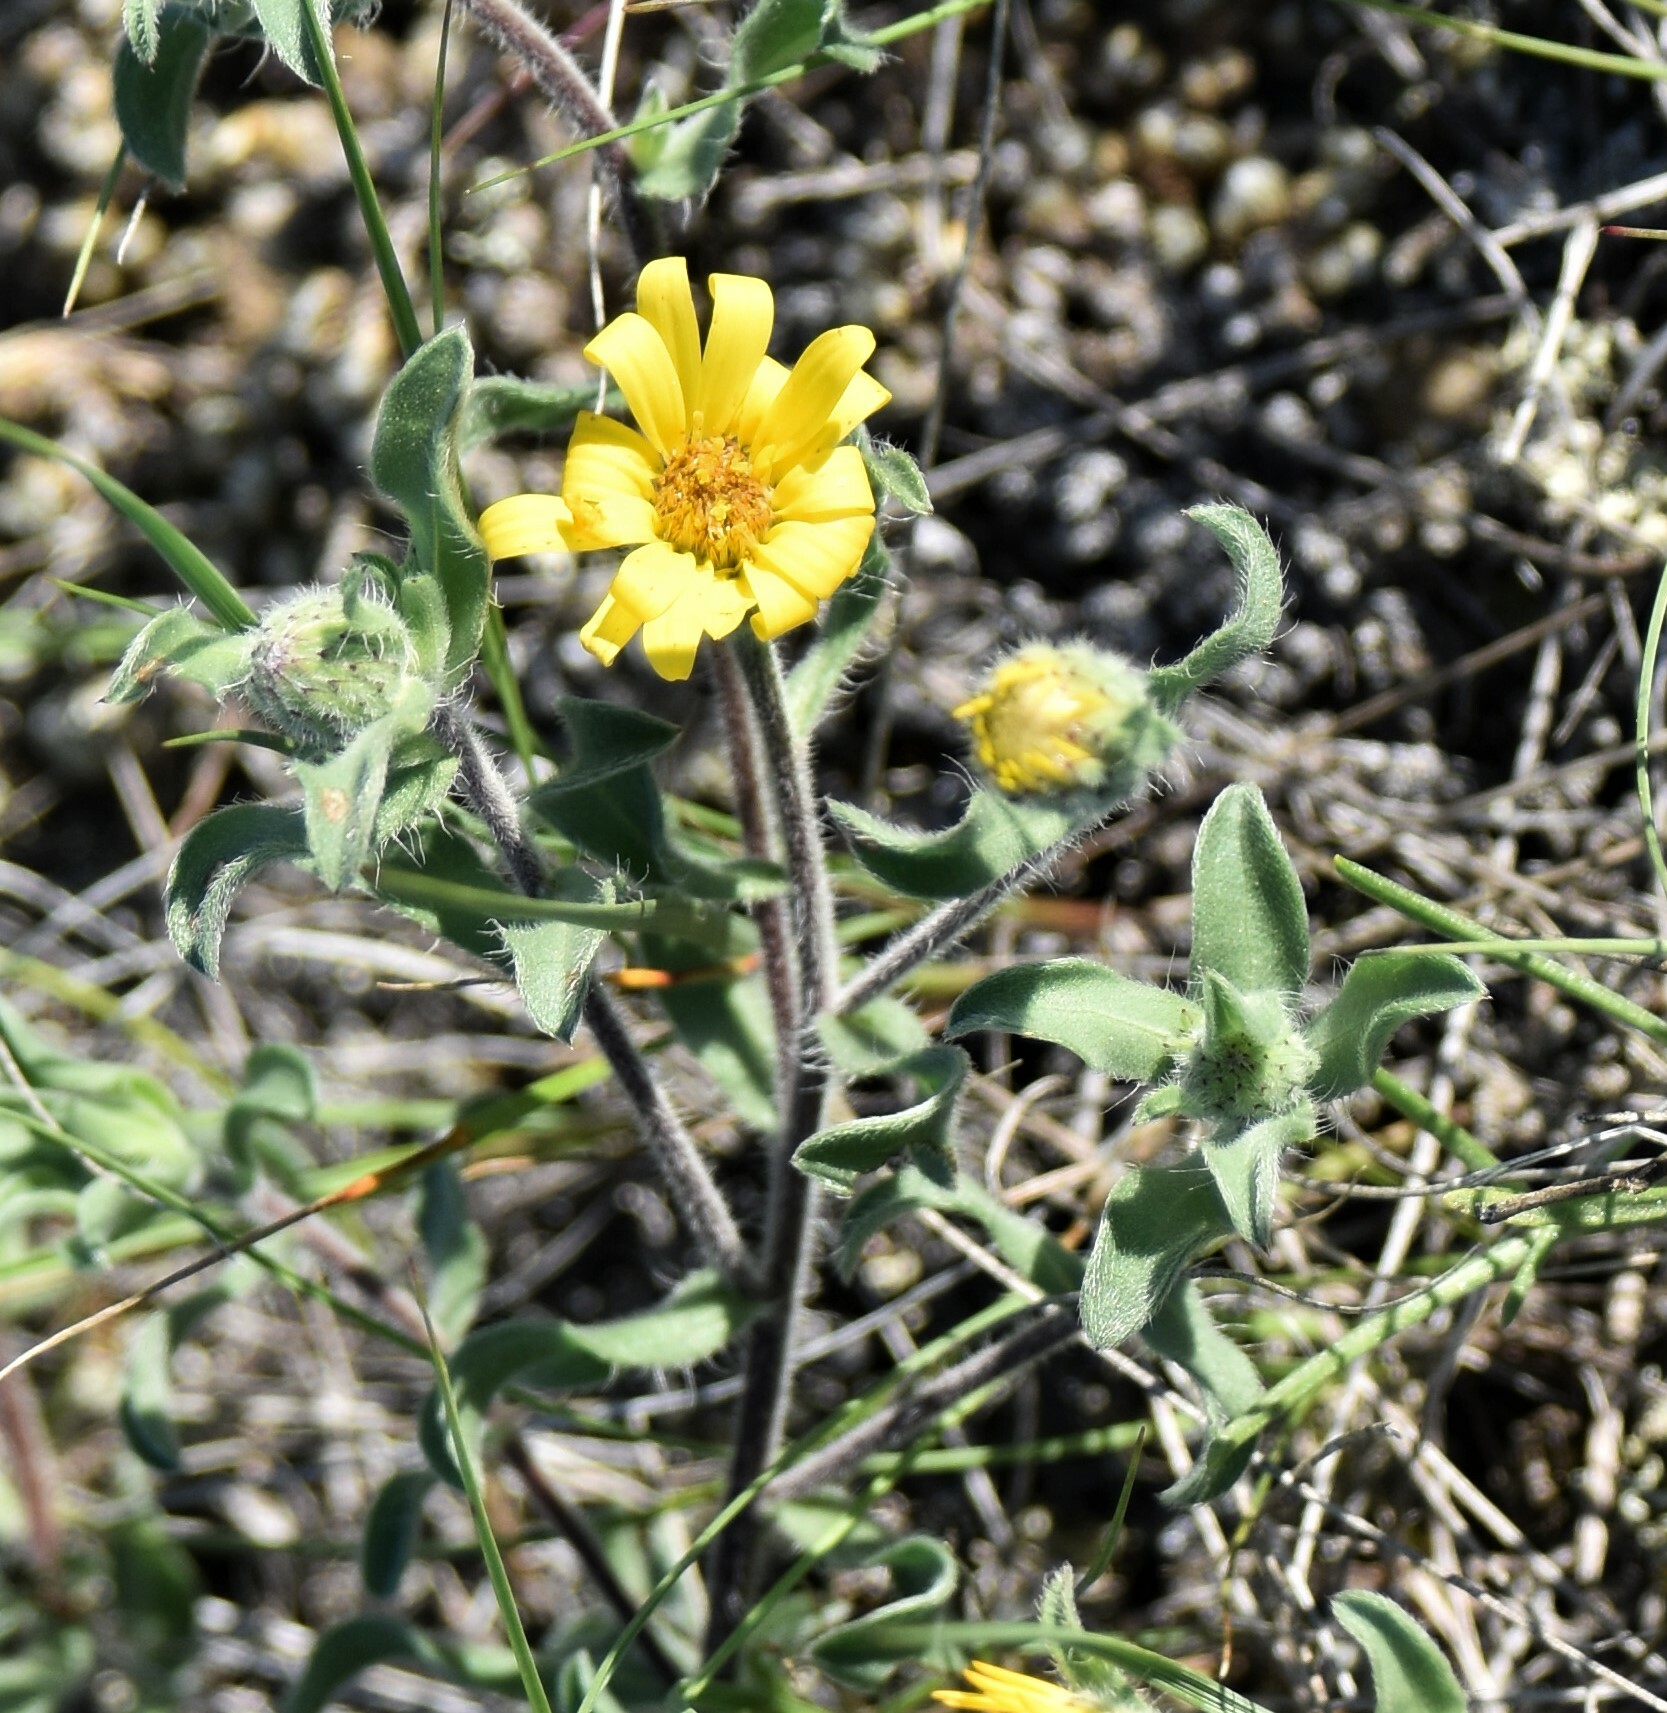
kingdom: Plantae
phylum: Tracheophyta
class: Magnoliopsida
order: Asterales
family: Asteraceae
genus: Heterotheca
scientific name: Heterotheca villosa
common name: Hairy false goldenaster
